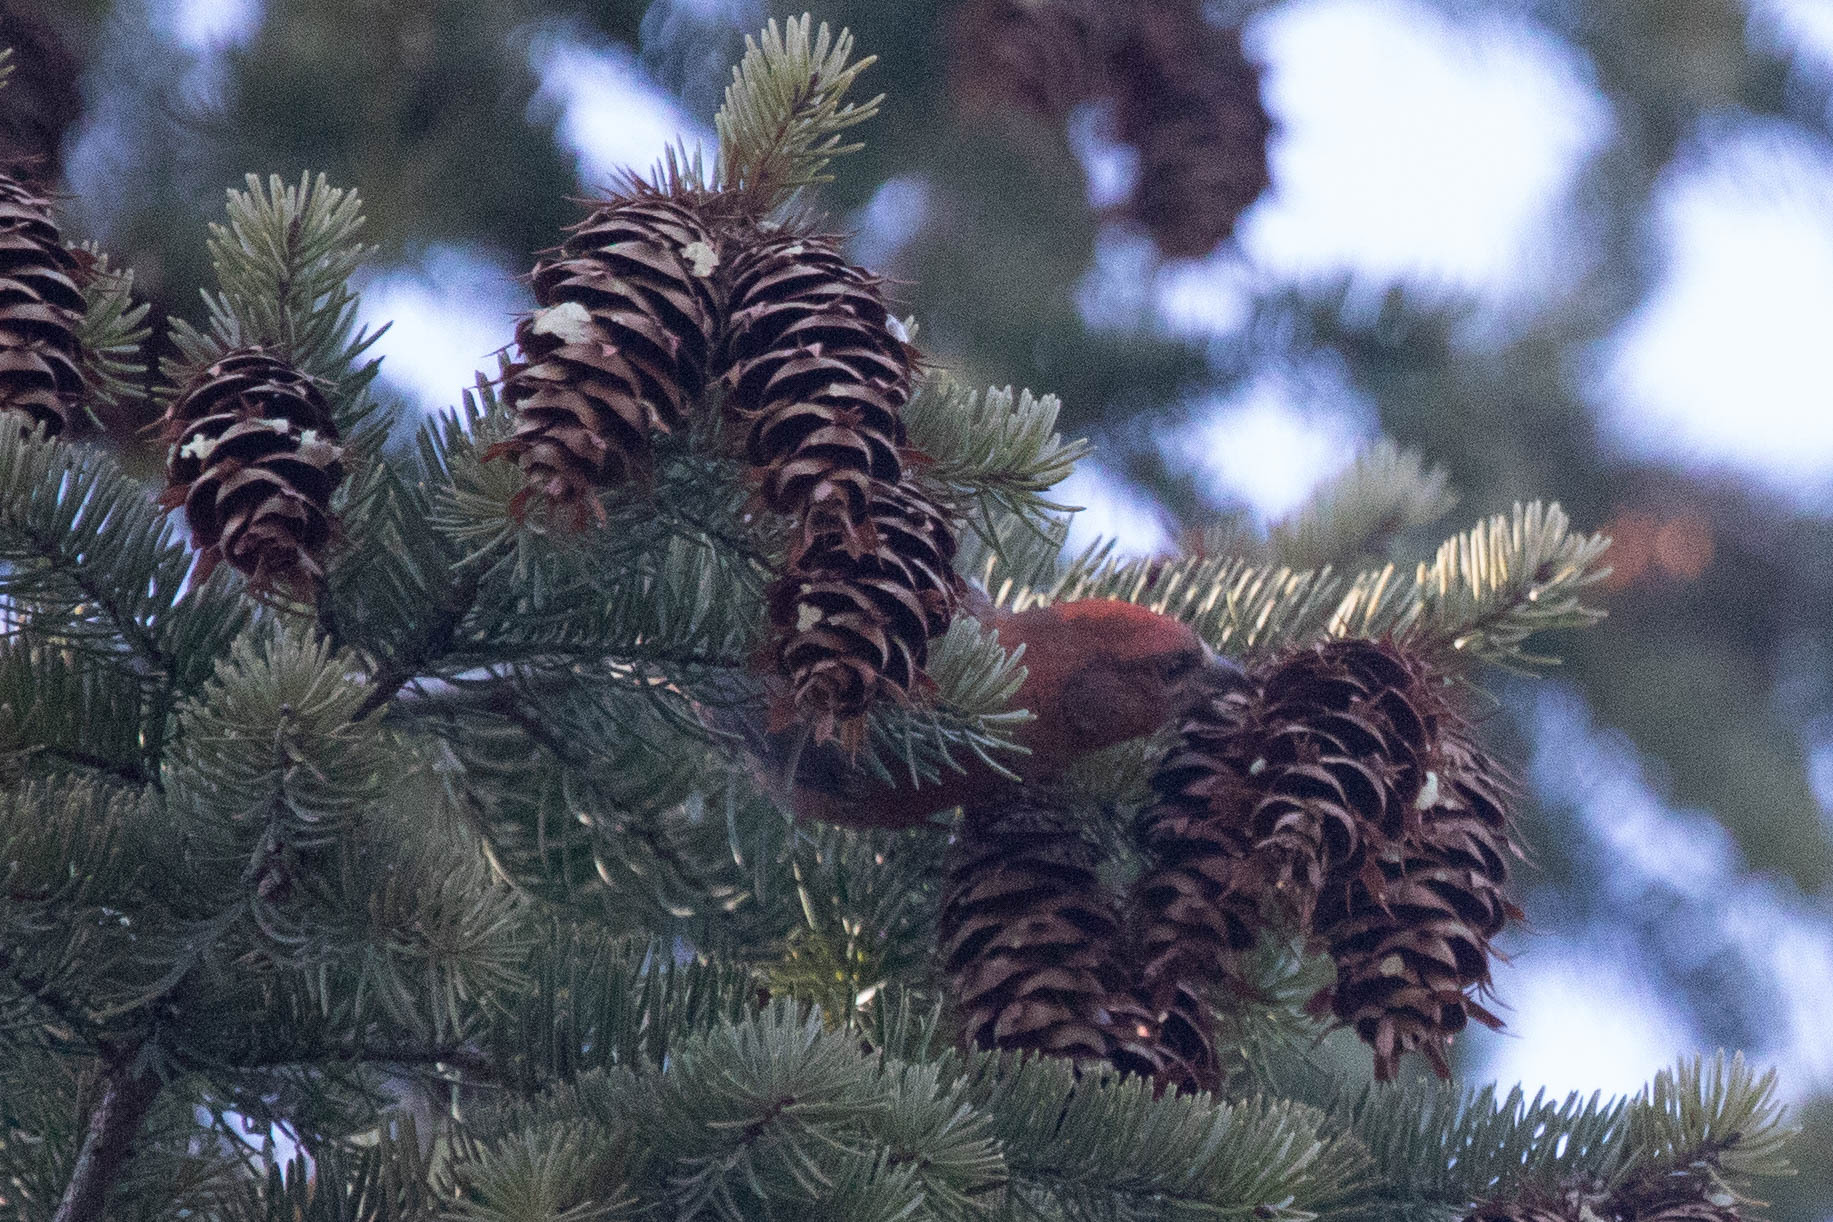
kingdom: Animalia
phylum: Chordata
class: Aves
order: Passeriformes
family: Fringillidae
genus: Loxia
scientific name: Loxia curvirostra
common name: Red crossbill
